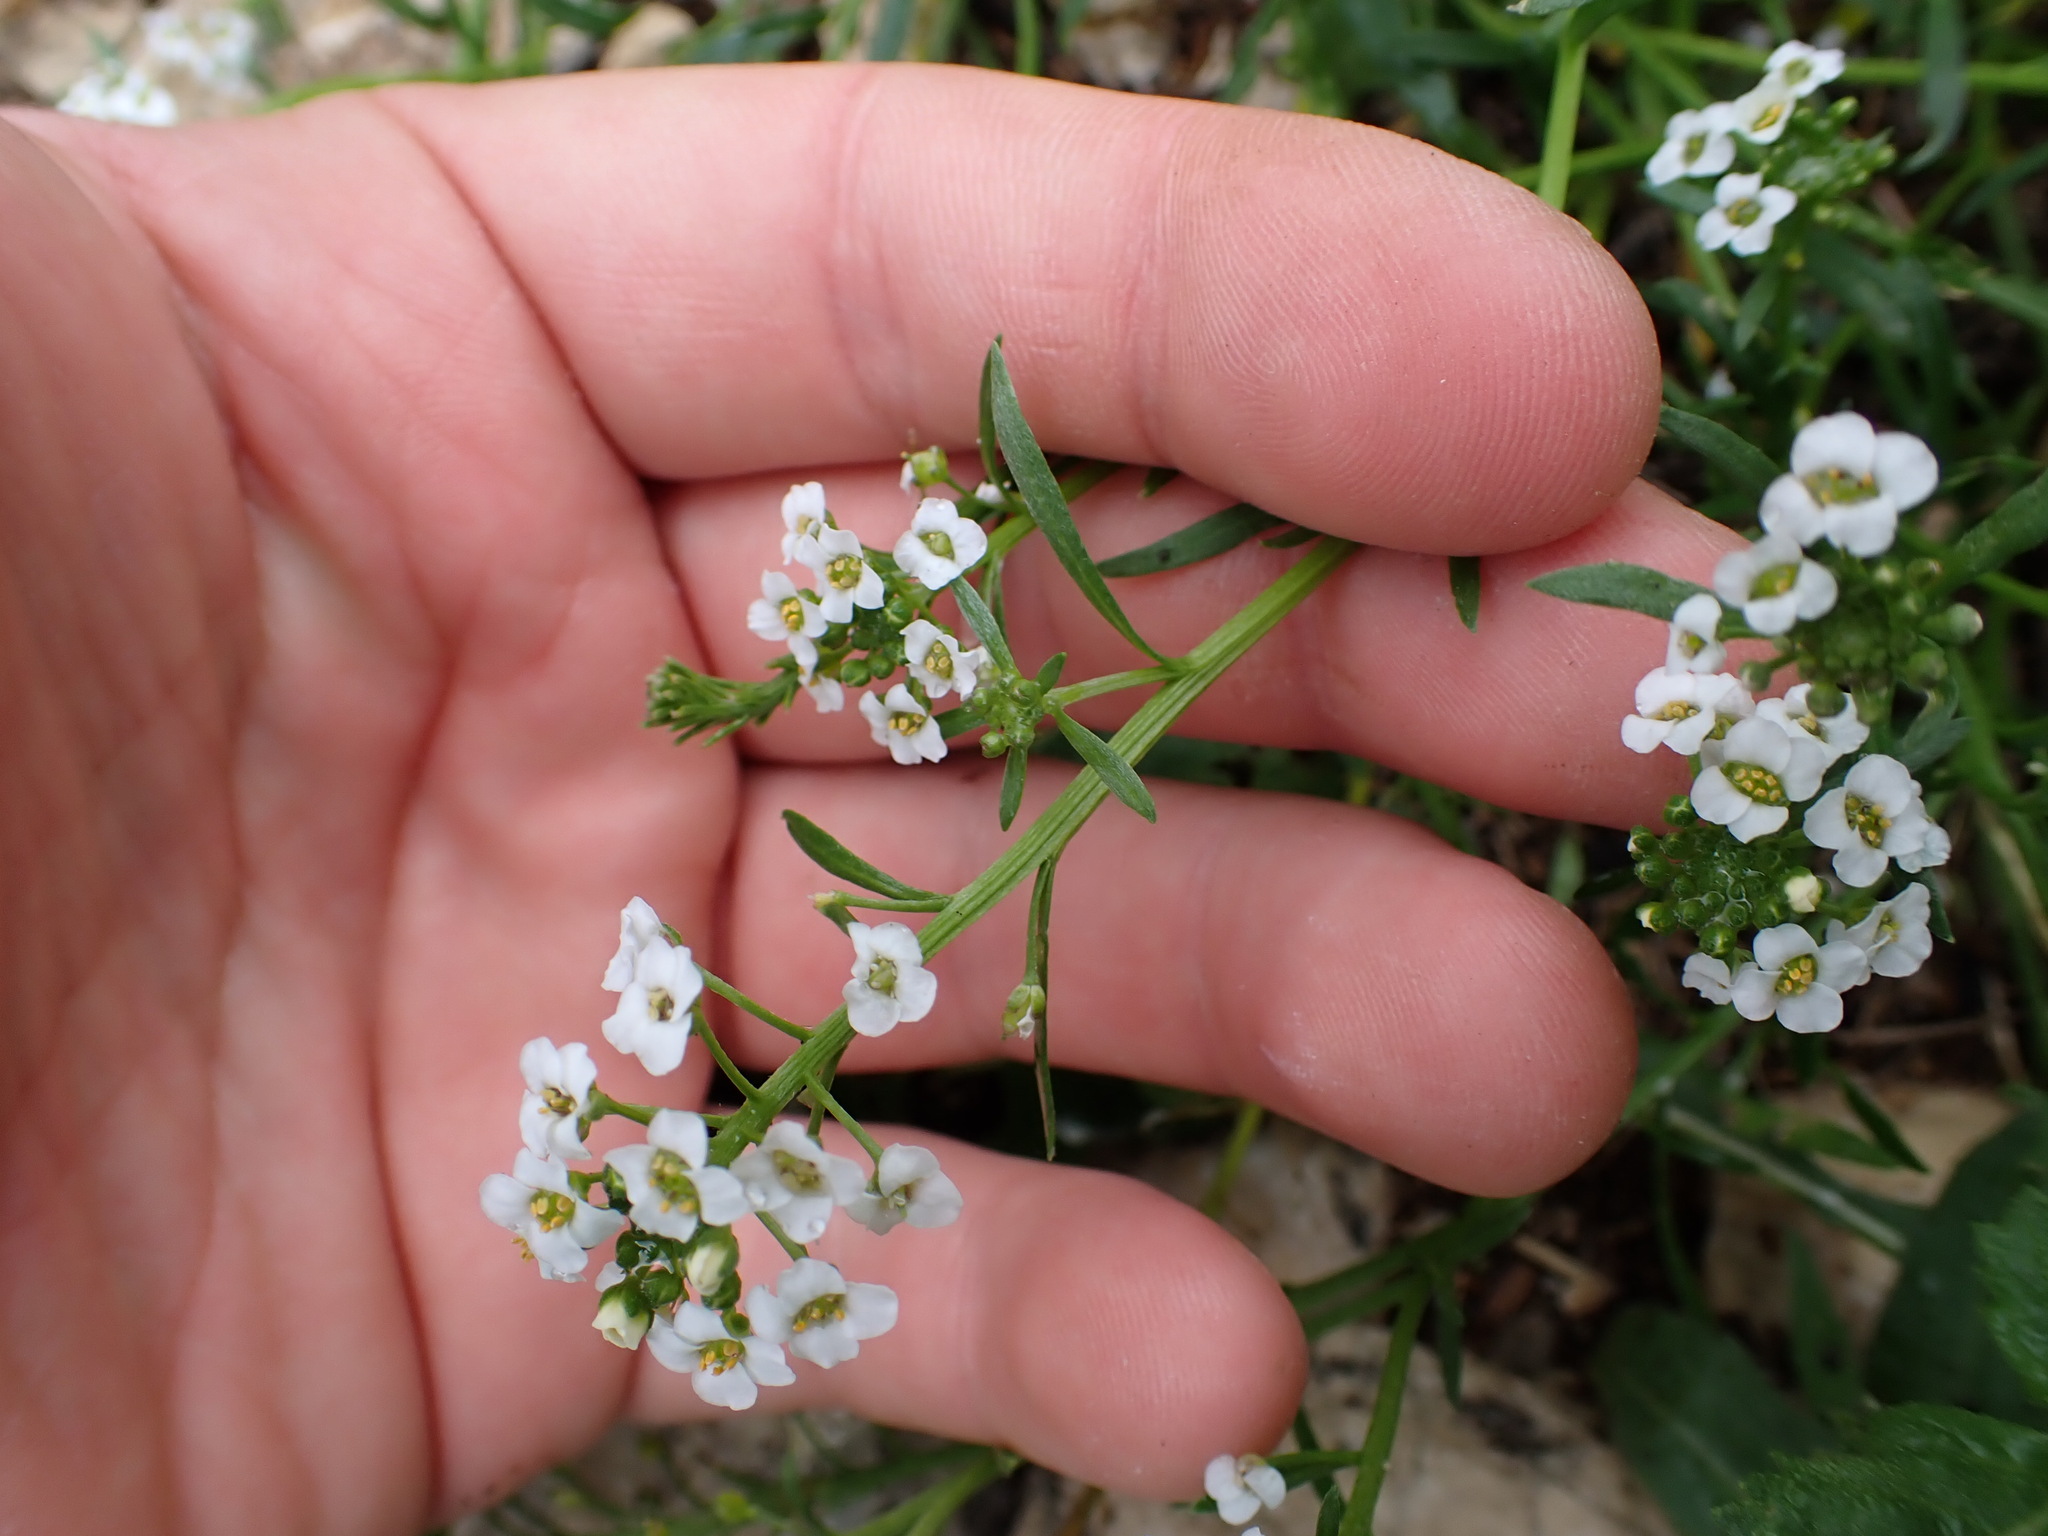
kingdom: Plantae
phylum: Tracheophyta
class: Magnoliopsida
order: Brassicales
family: Brassicaceae
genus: Lobularia
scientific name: Lobularia maritima
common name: Sweet alison
